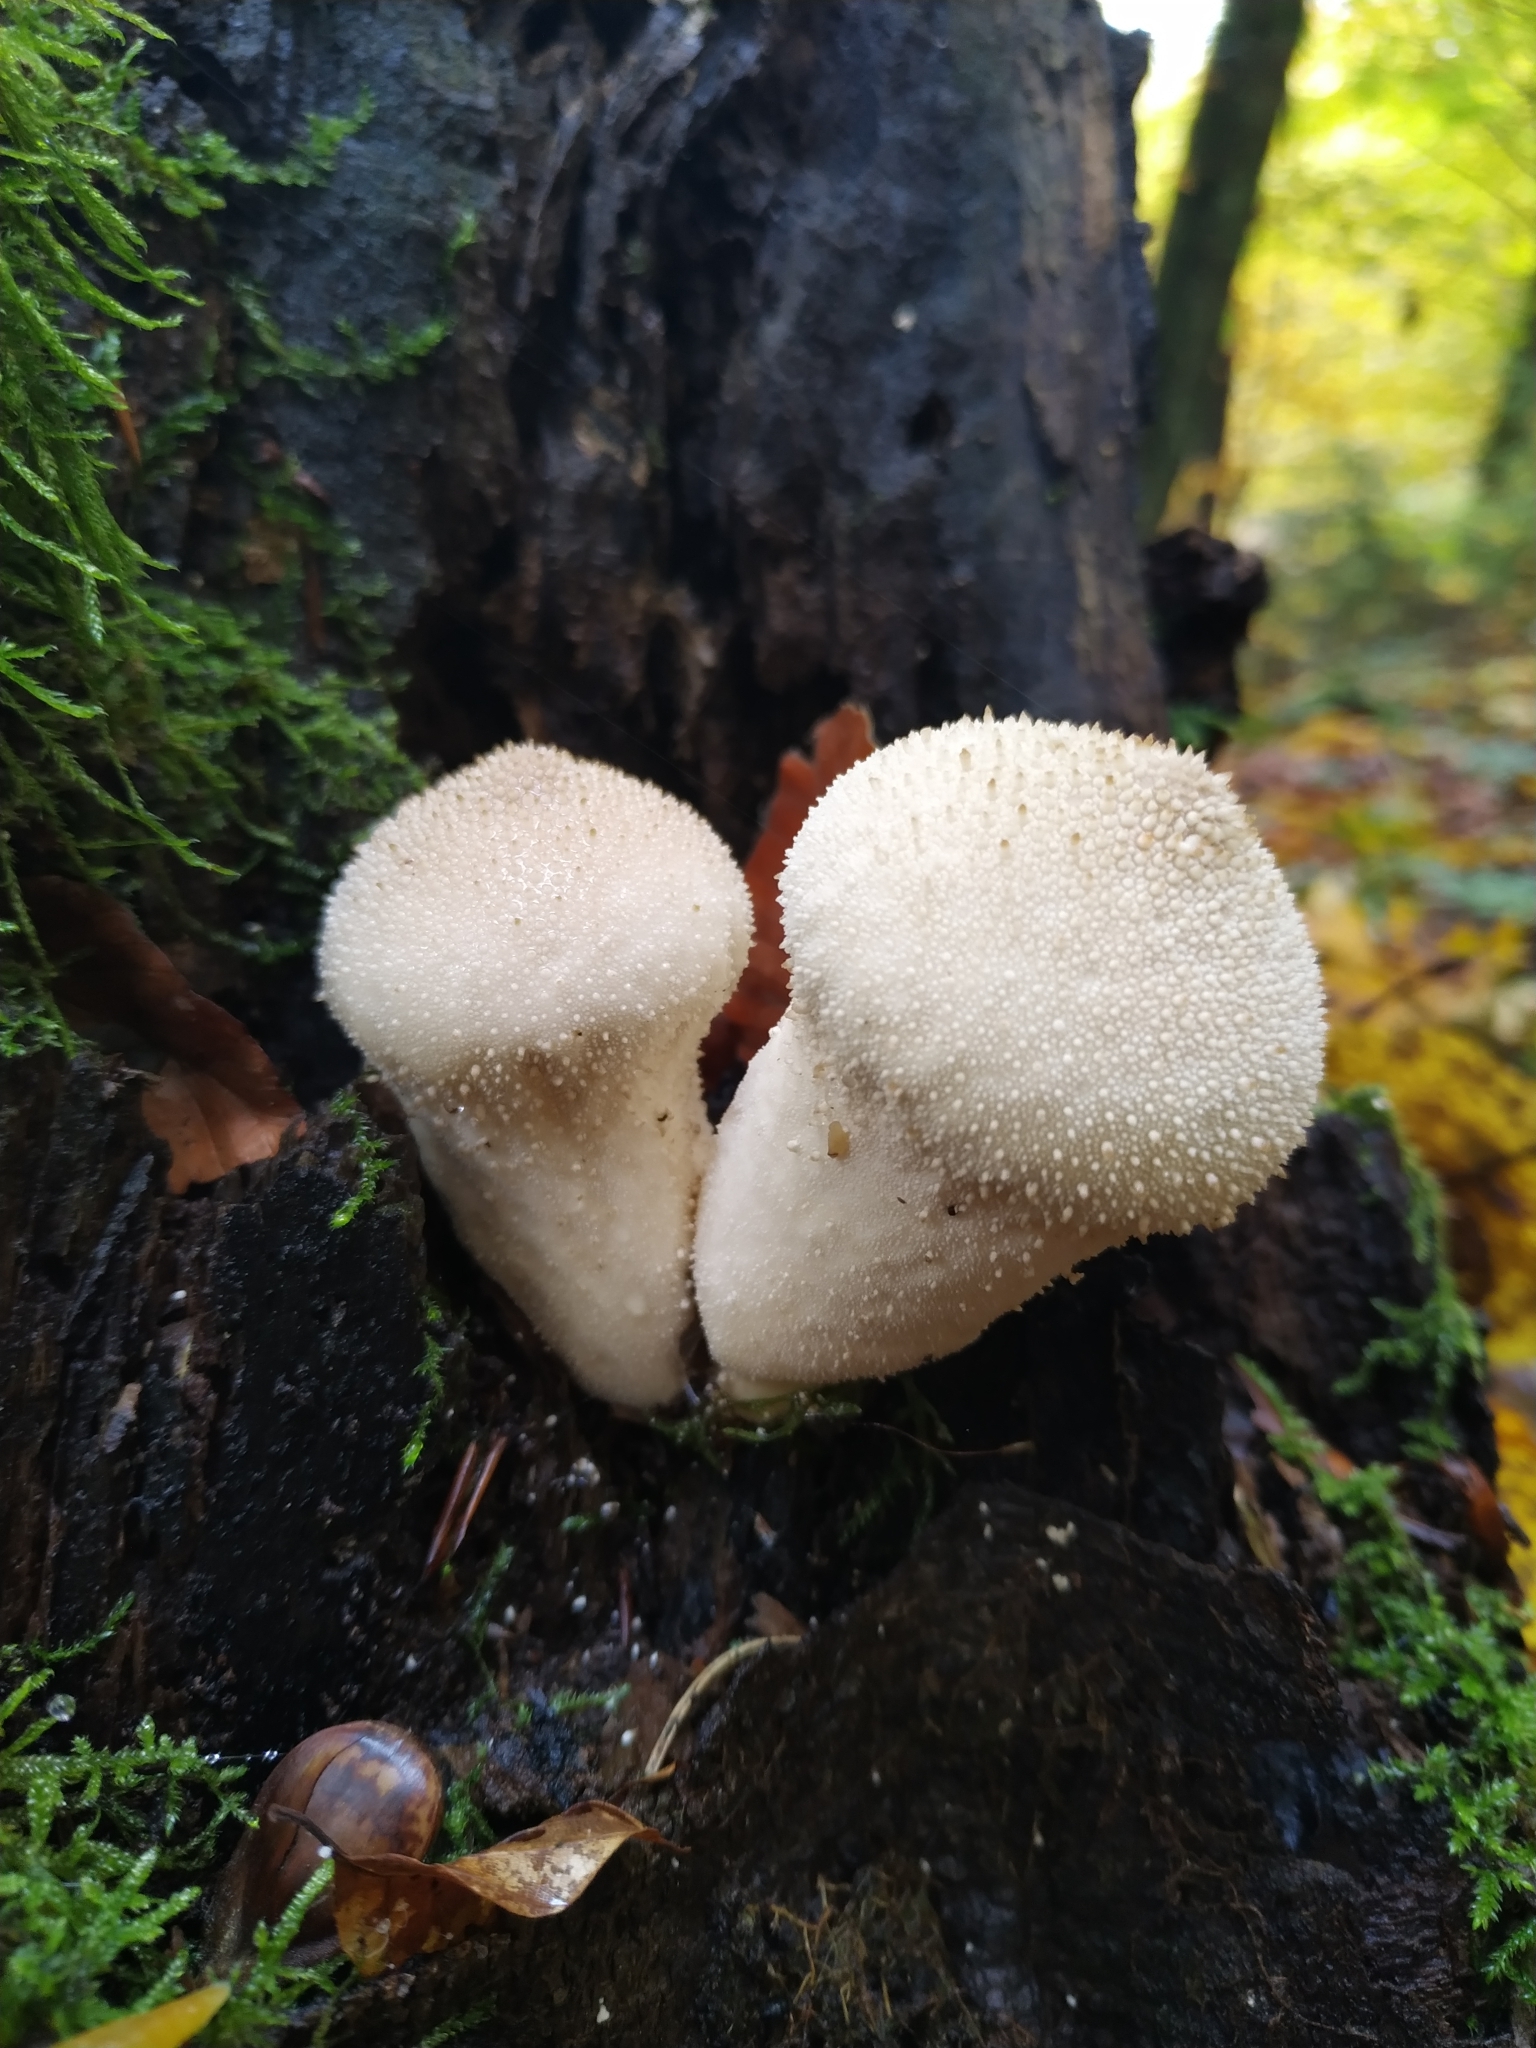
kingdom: Fungi
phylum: Basidiomycota
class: Agaricomycetes
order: Agaricales
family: Lycoperdaceae
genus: Lycoperdon
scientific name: Lycoperdon perlatum
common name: Common puffball
